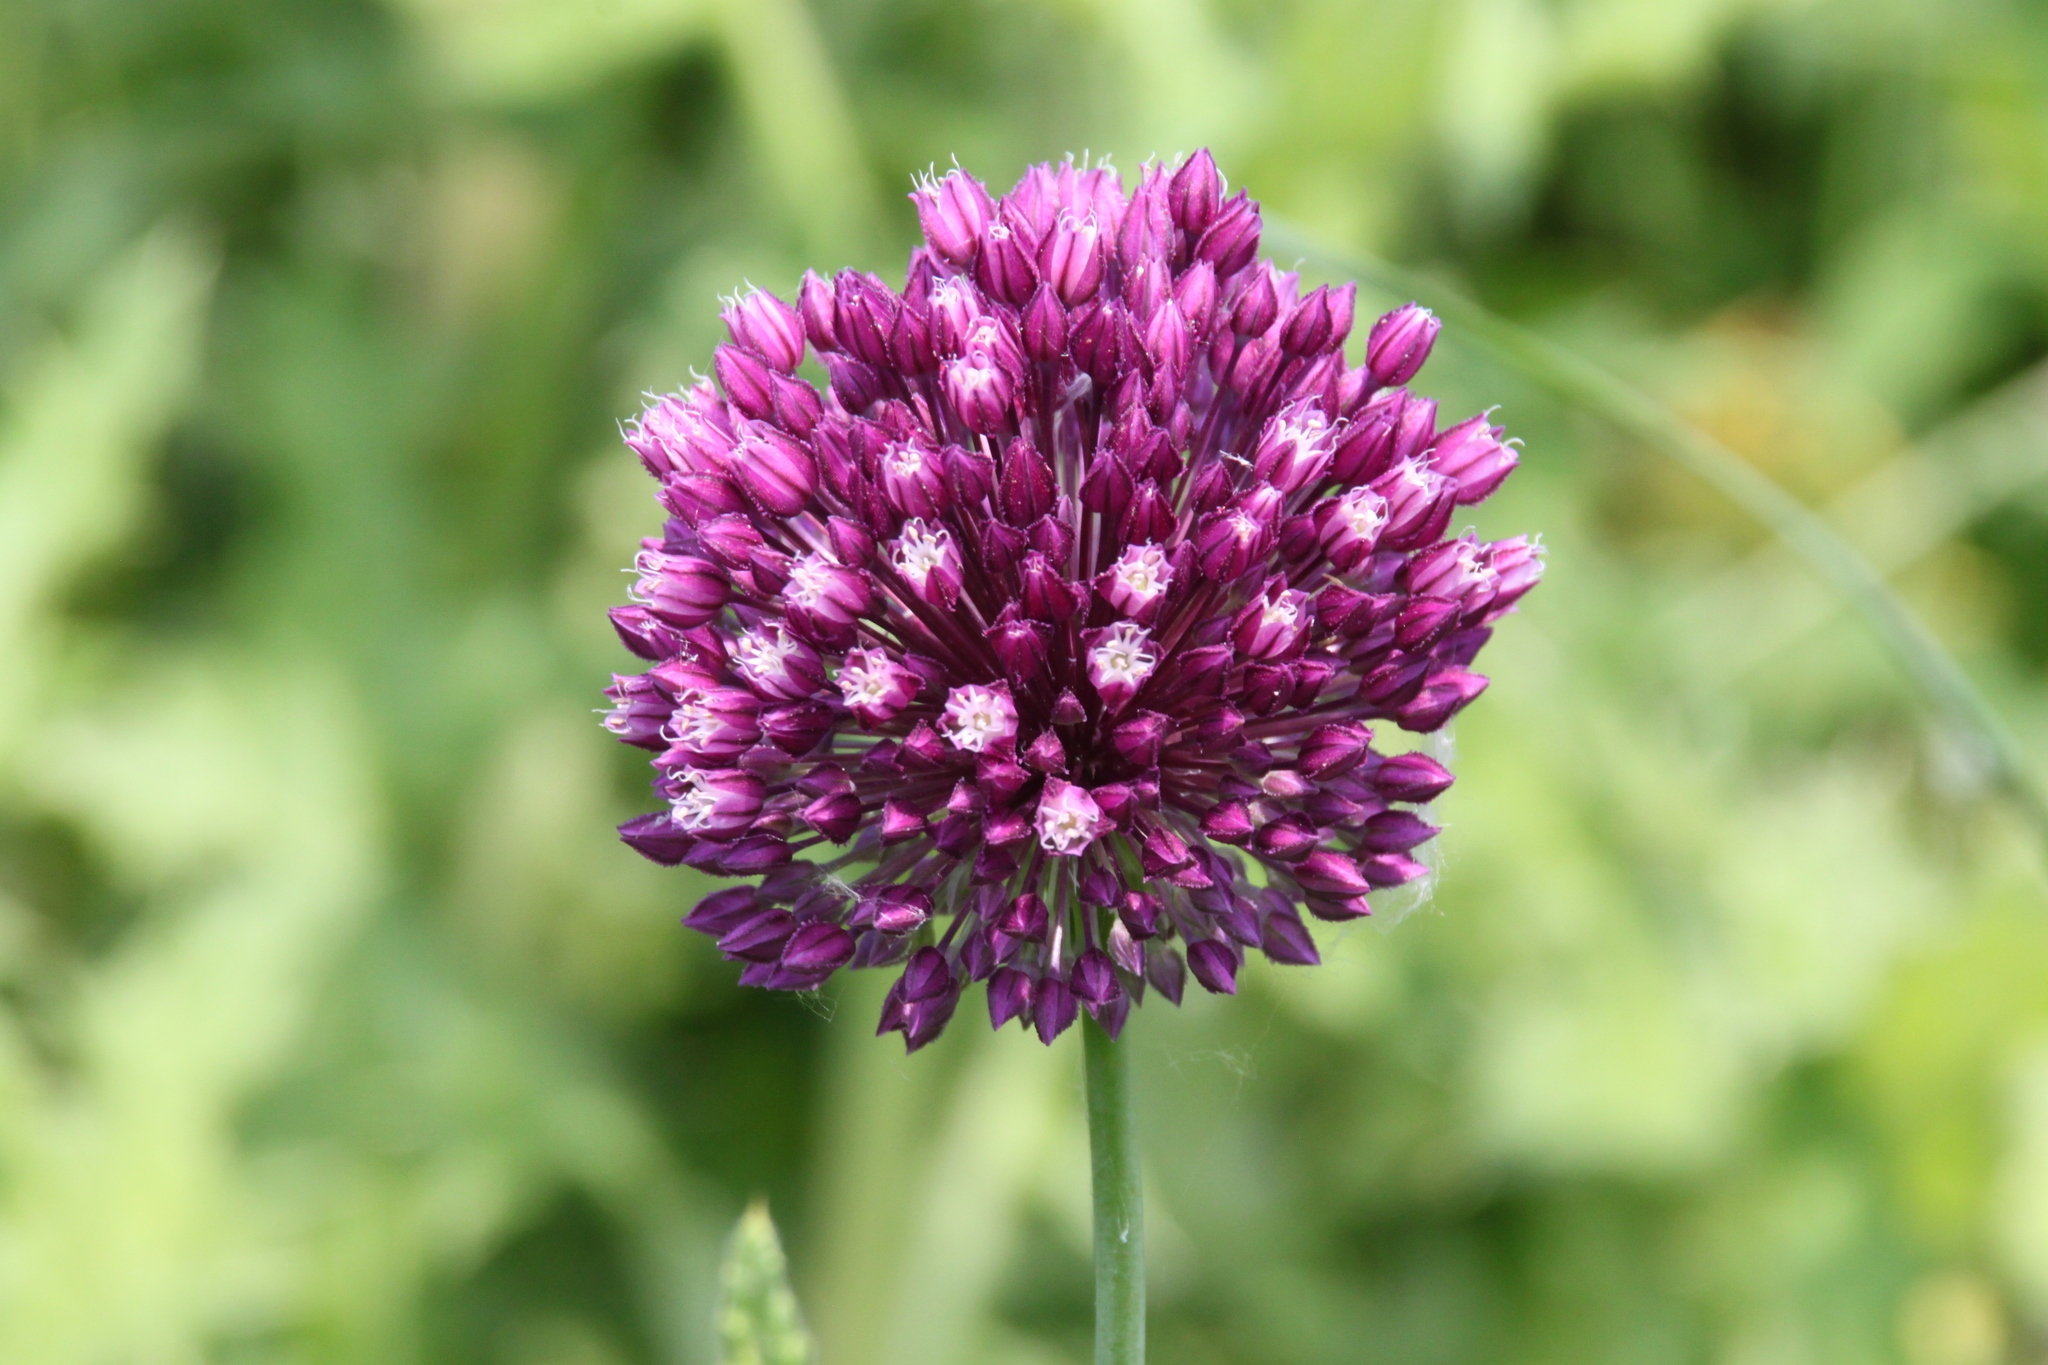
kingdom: Plantae
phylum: Tracheophyta
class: Liliopsida
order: Asparagales
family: Amaryllidaceae
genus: Allium
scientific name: Allium rotundum
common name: Sand leek
